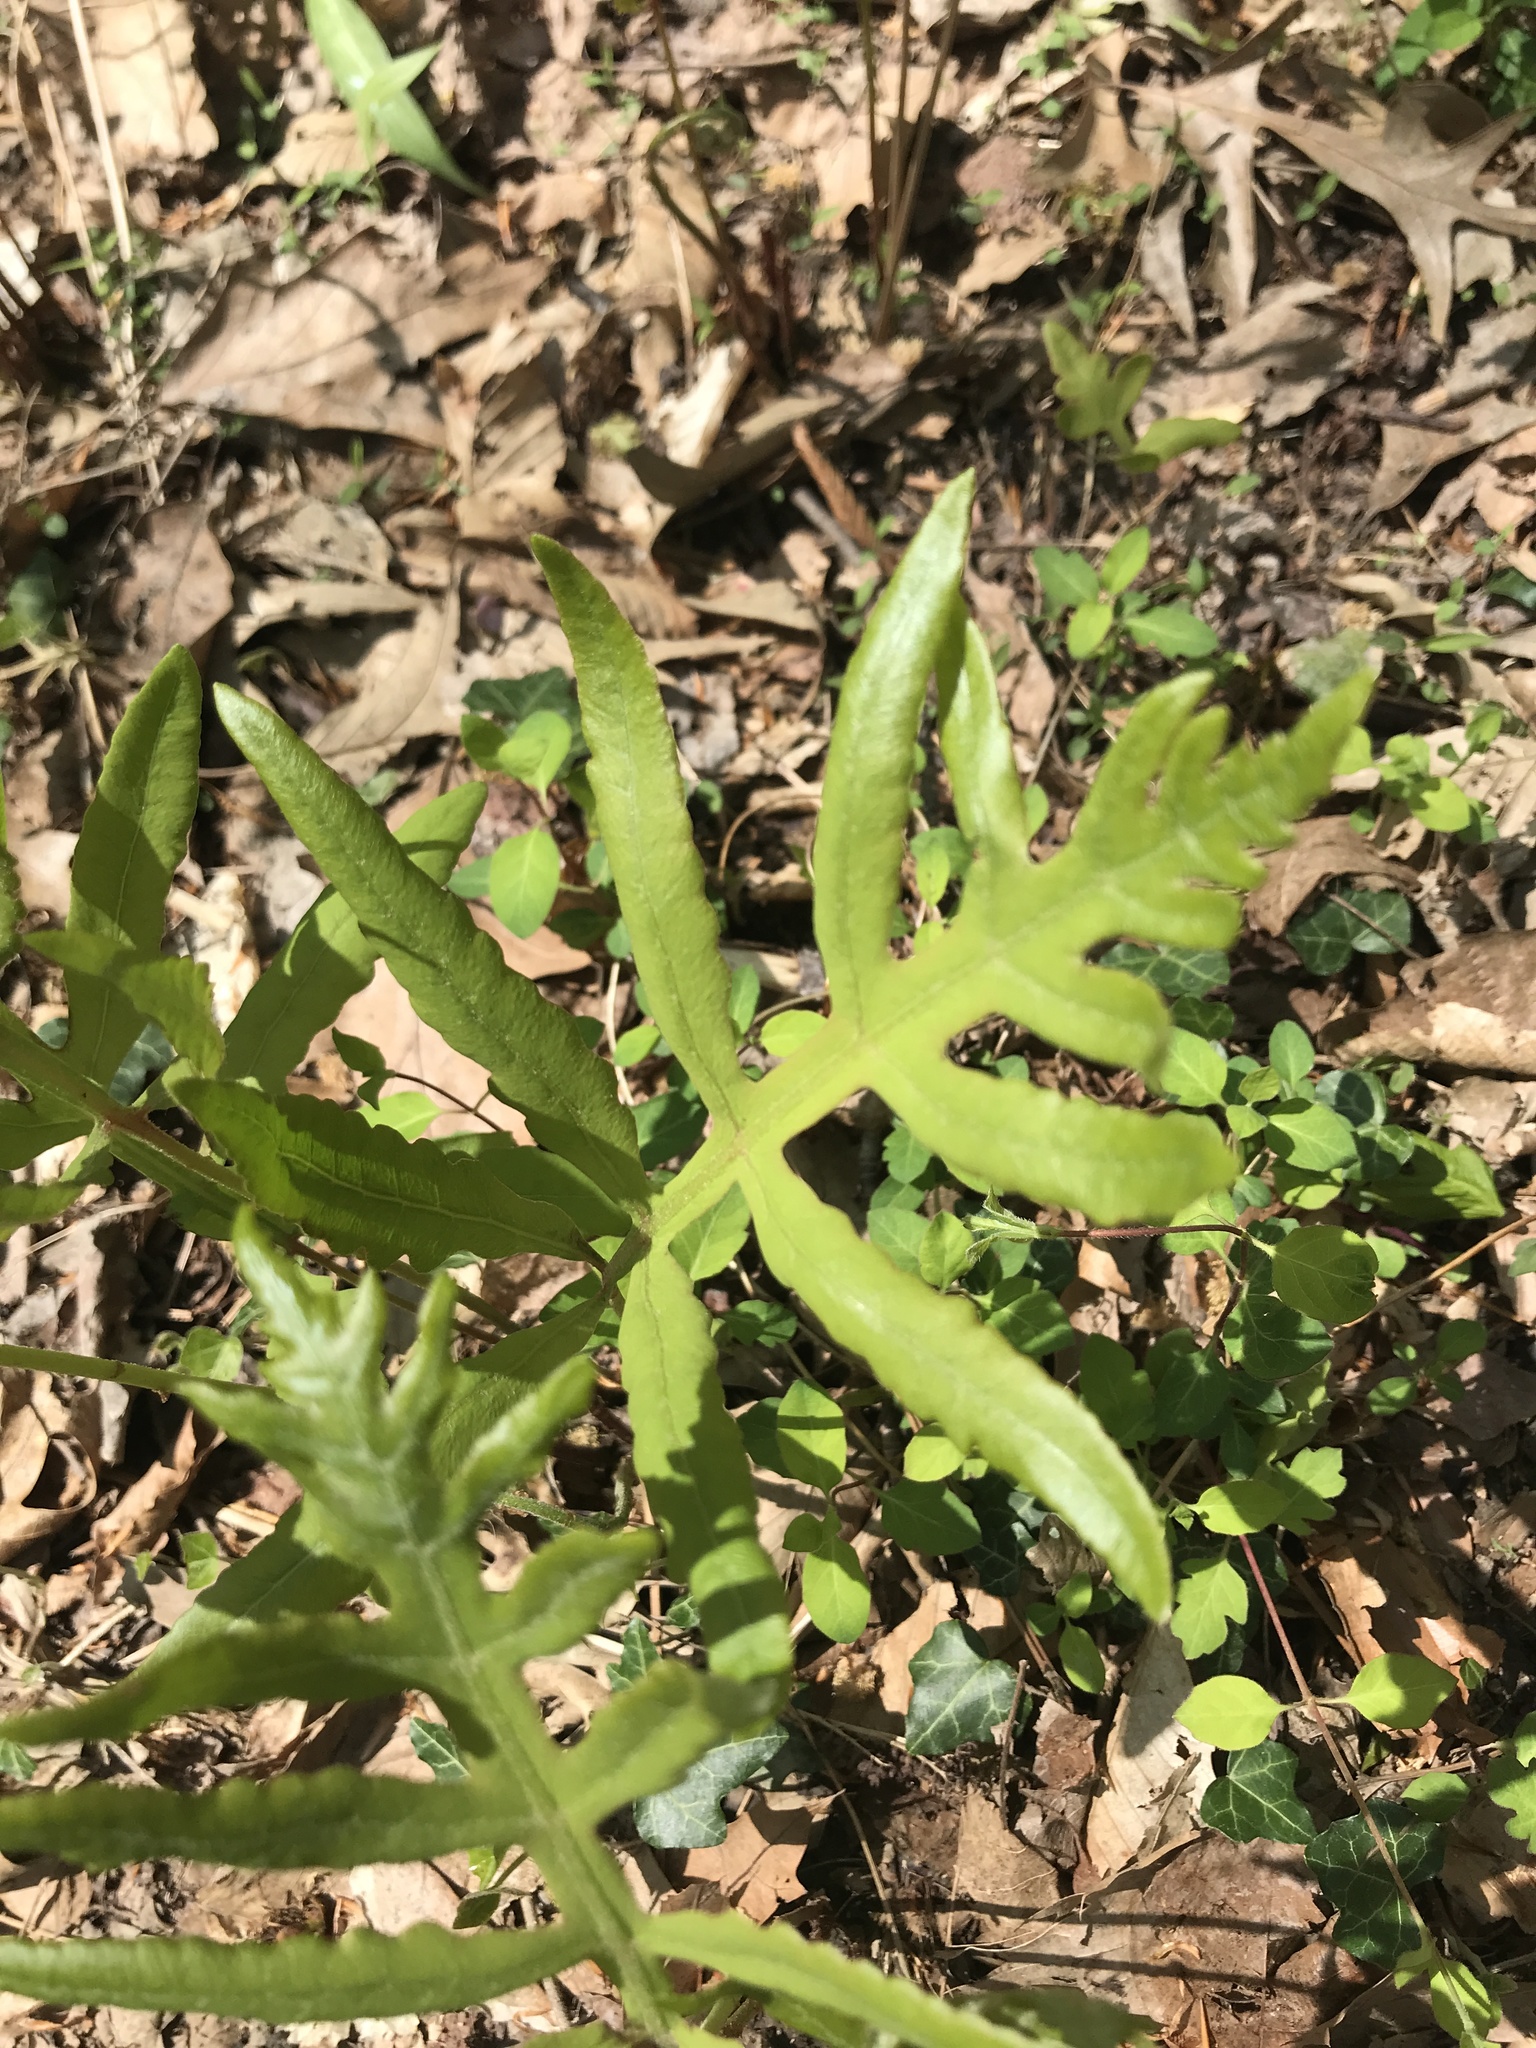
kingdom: Plantae
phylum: Tracheophyta
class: Polypodiopsida
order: Polypodiales
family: Onocleaceae
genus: Onoclea
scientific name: Onoclea sensibilis
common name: Sensitive fern
